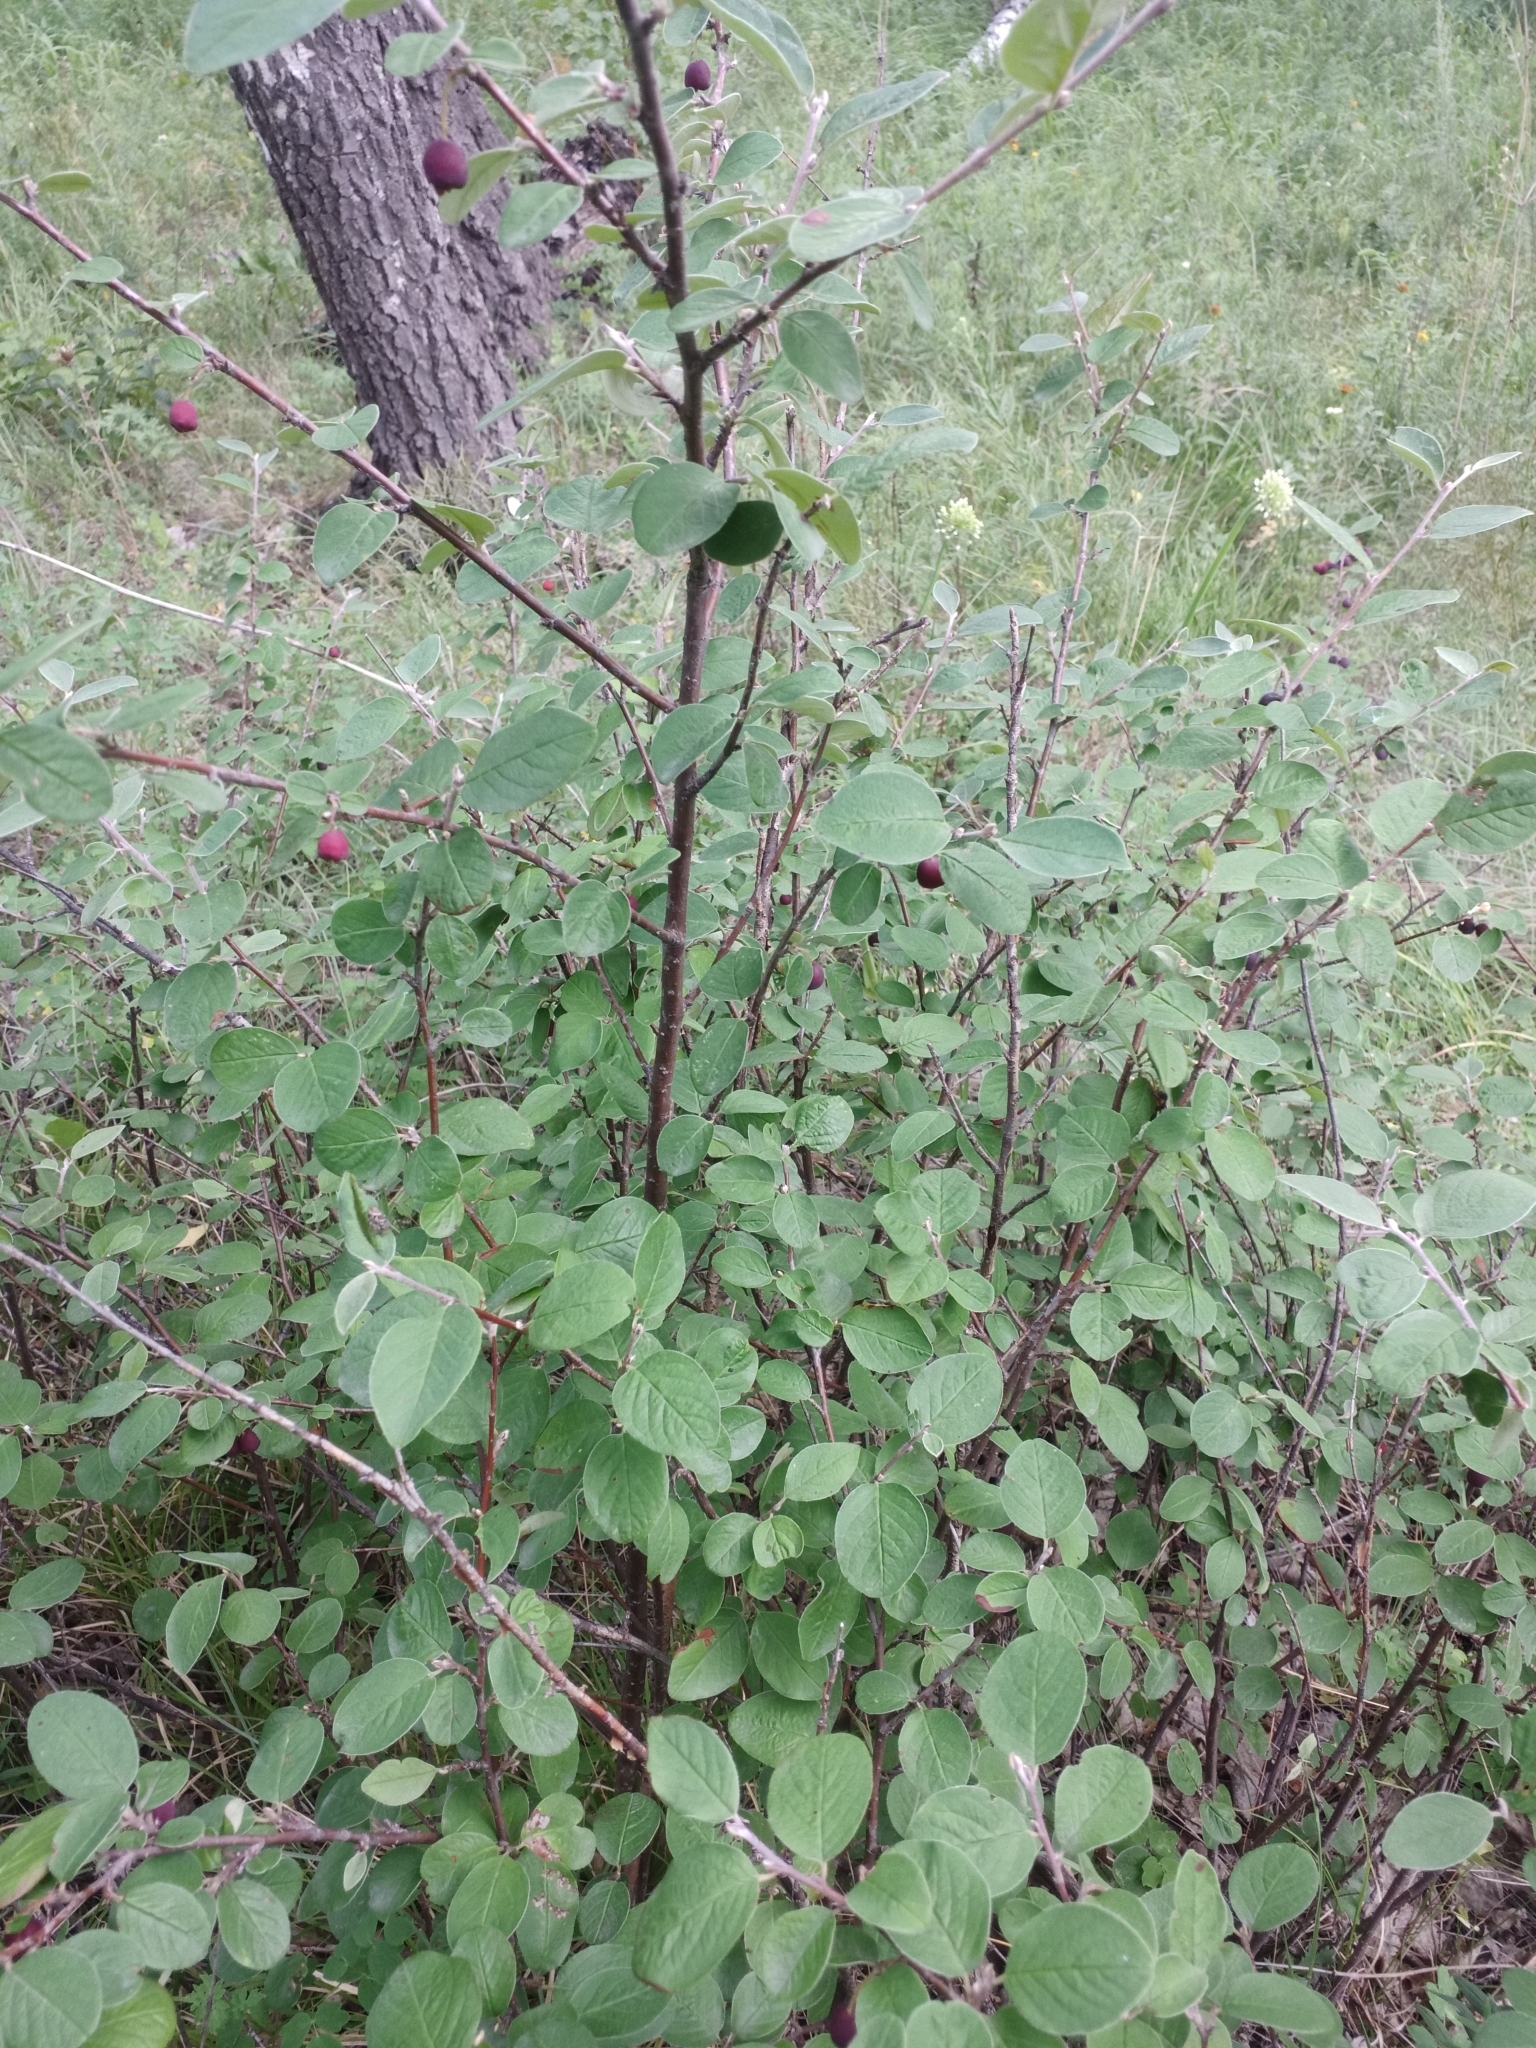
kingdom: Plantae
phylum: Tracheophyta
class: Magnoliopsida
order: Rosales
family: Rosaceae
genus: Cotoneaster
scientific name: Cotoneaster melanocarpus
